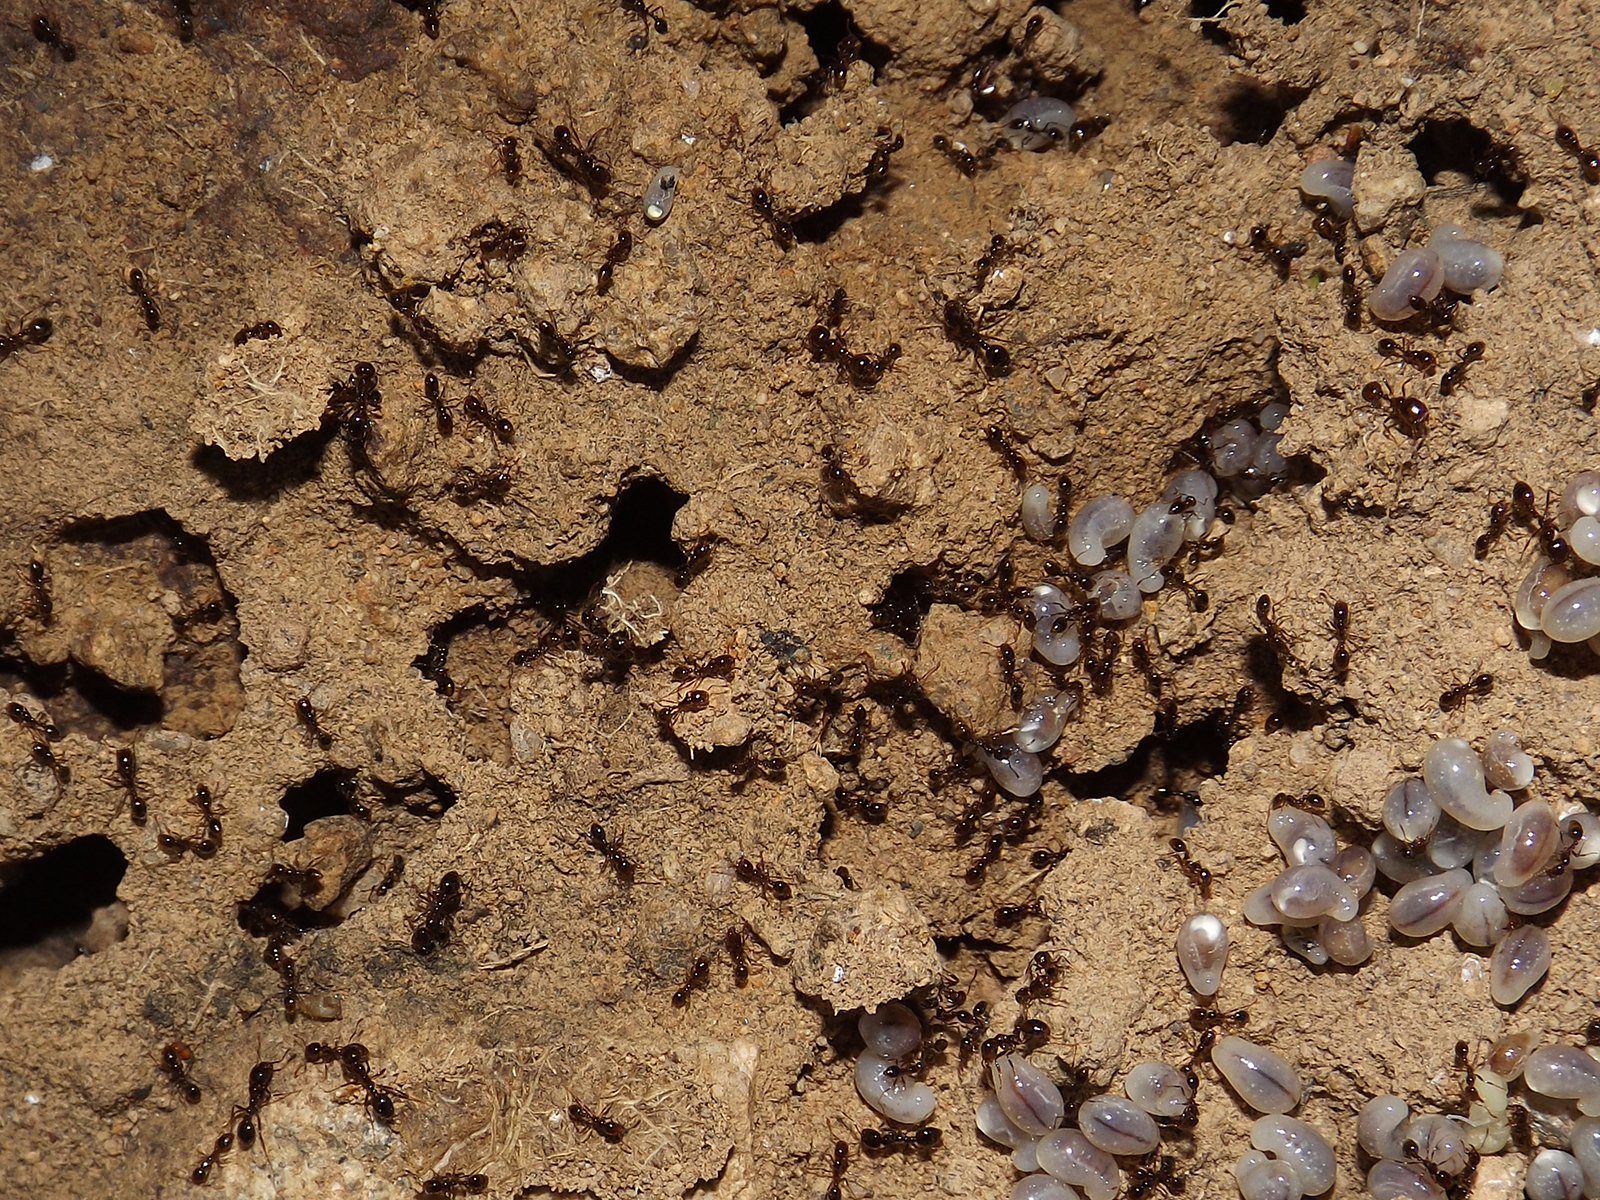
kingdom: Animalia
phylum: Arthropoda
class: Insecta
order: Hymenoptera
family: Formicidae
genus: Solenopsis
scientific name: Solenopsis gayi
